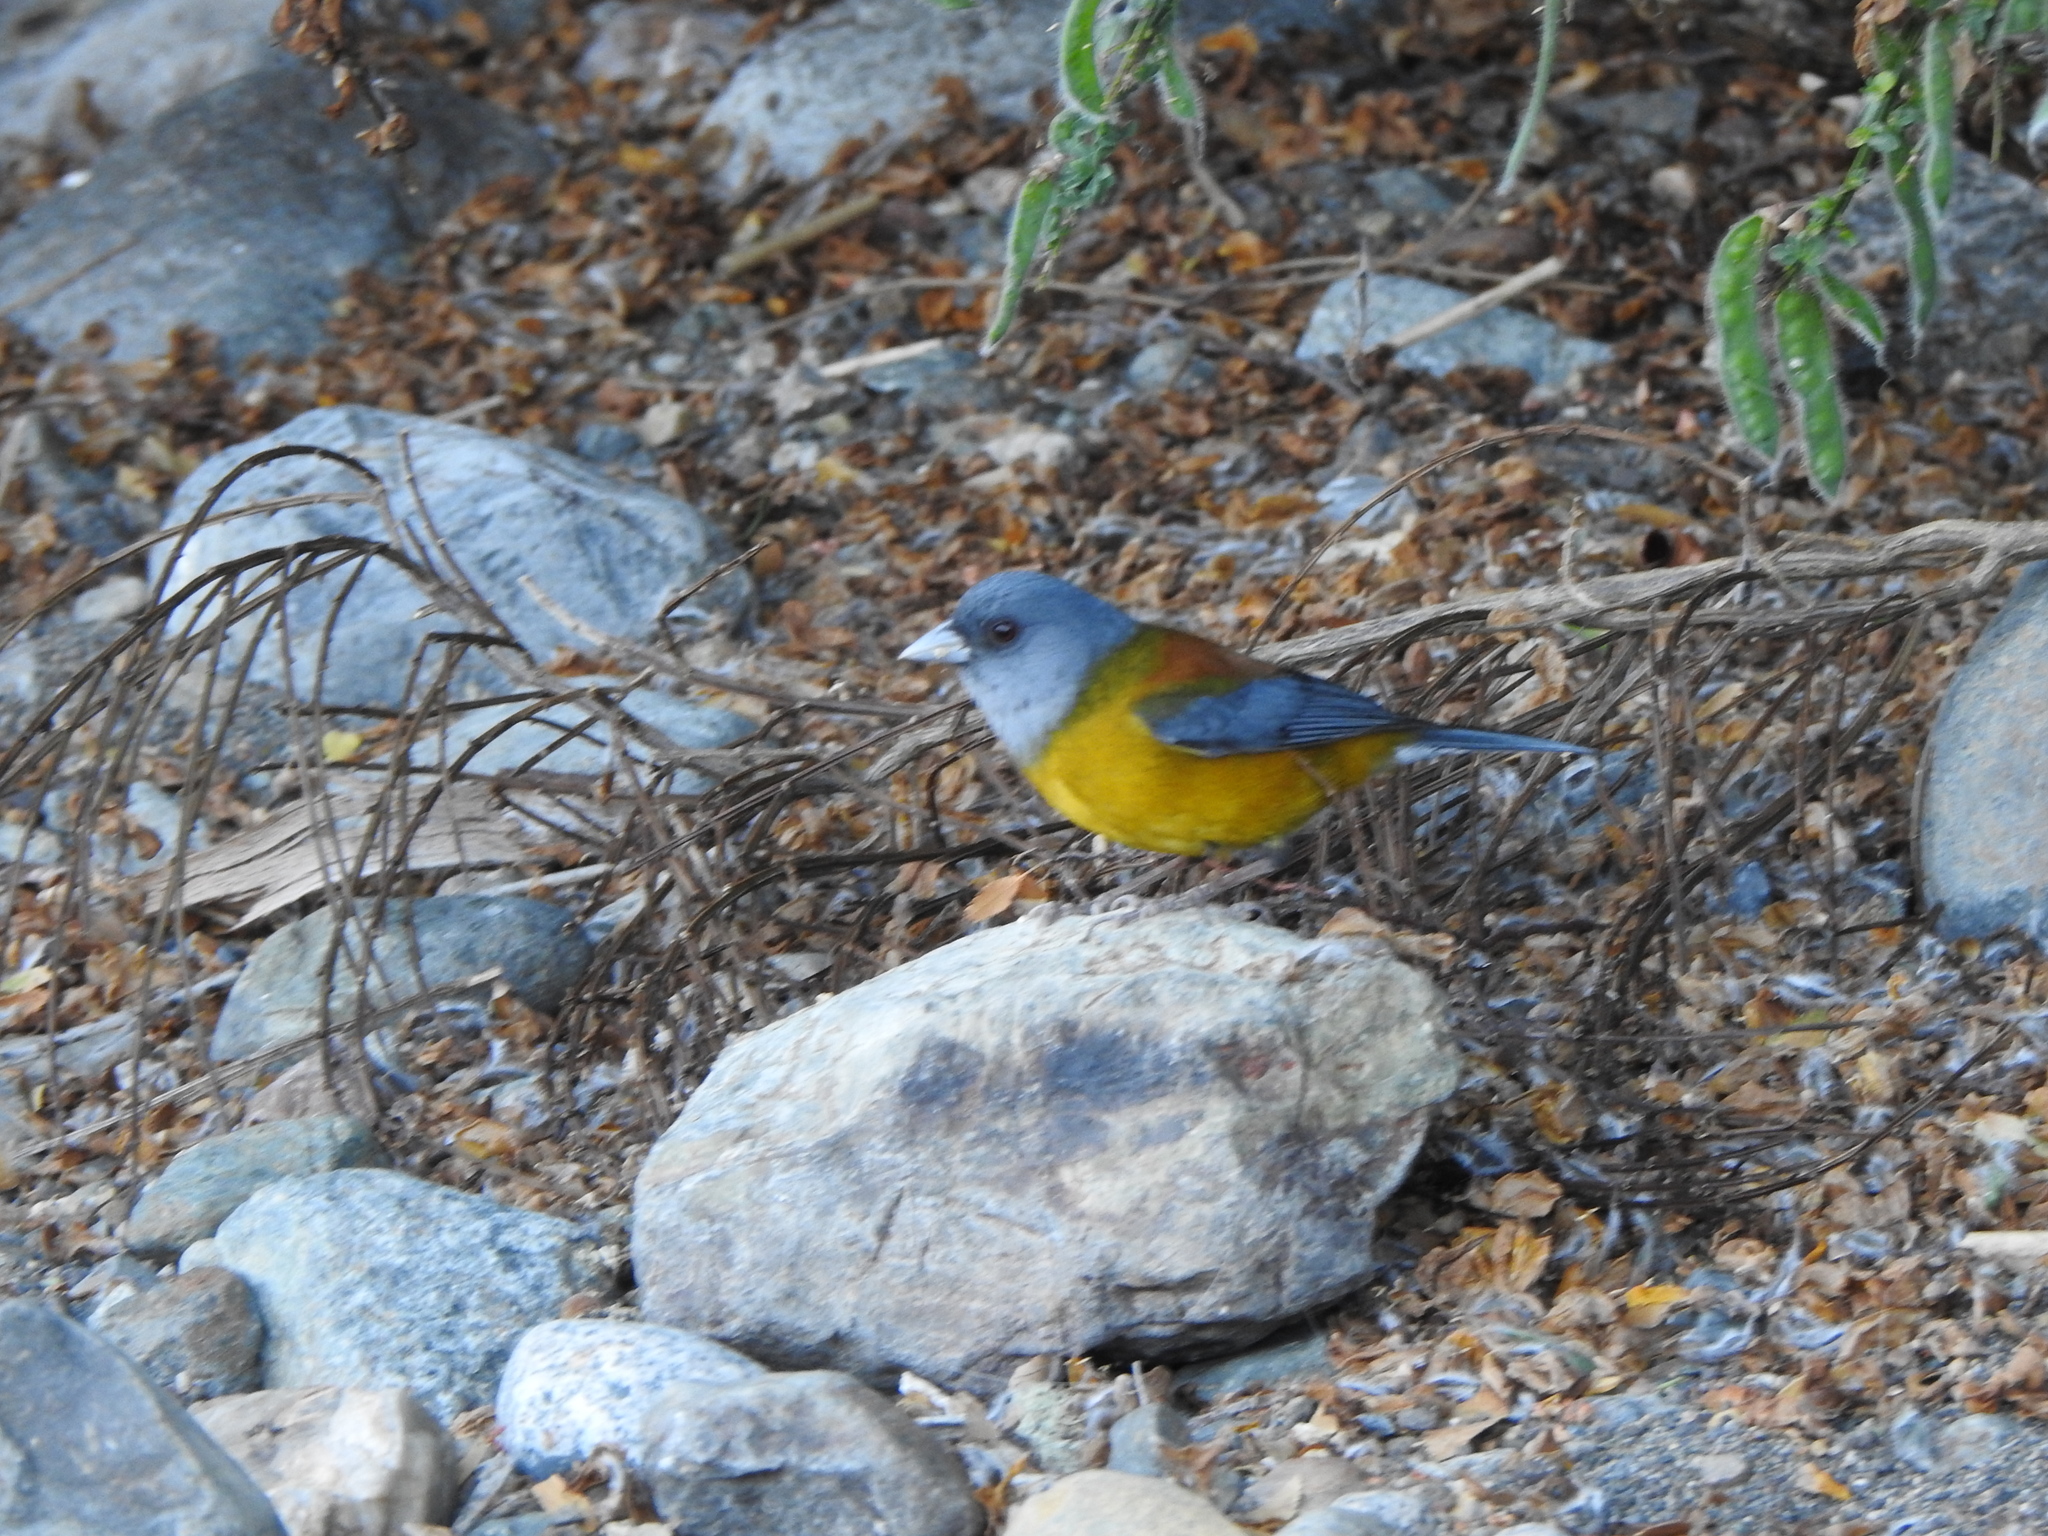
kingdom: Animalia
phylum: Chordata
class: Aves
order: Passeriformes
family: Thraupidae
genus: Phrygilus
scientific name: Phrygilus patagonicus
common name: Patagonian sierra finch
